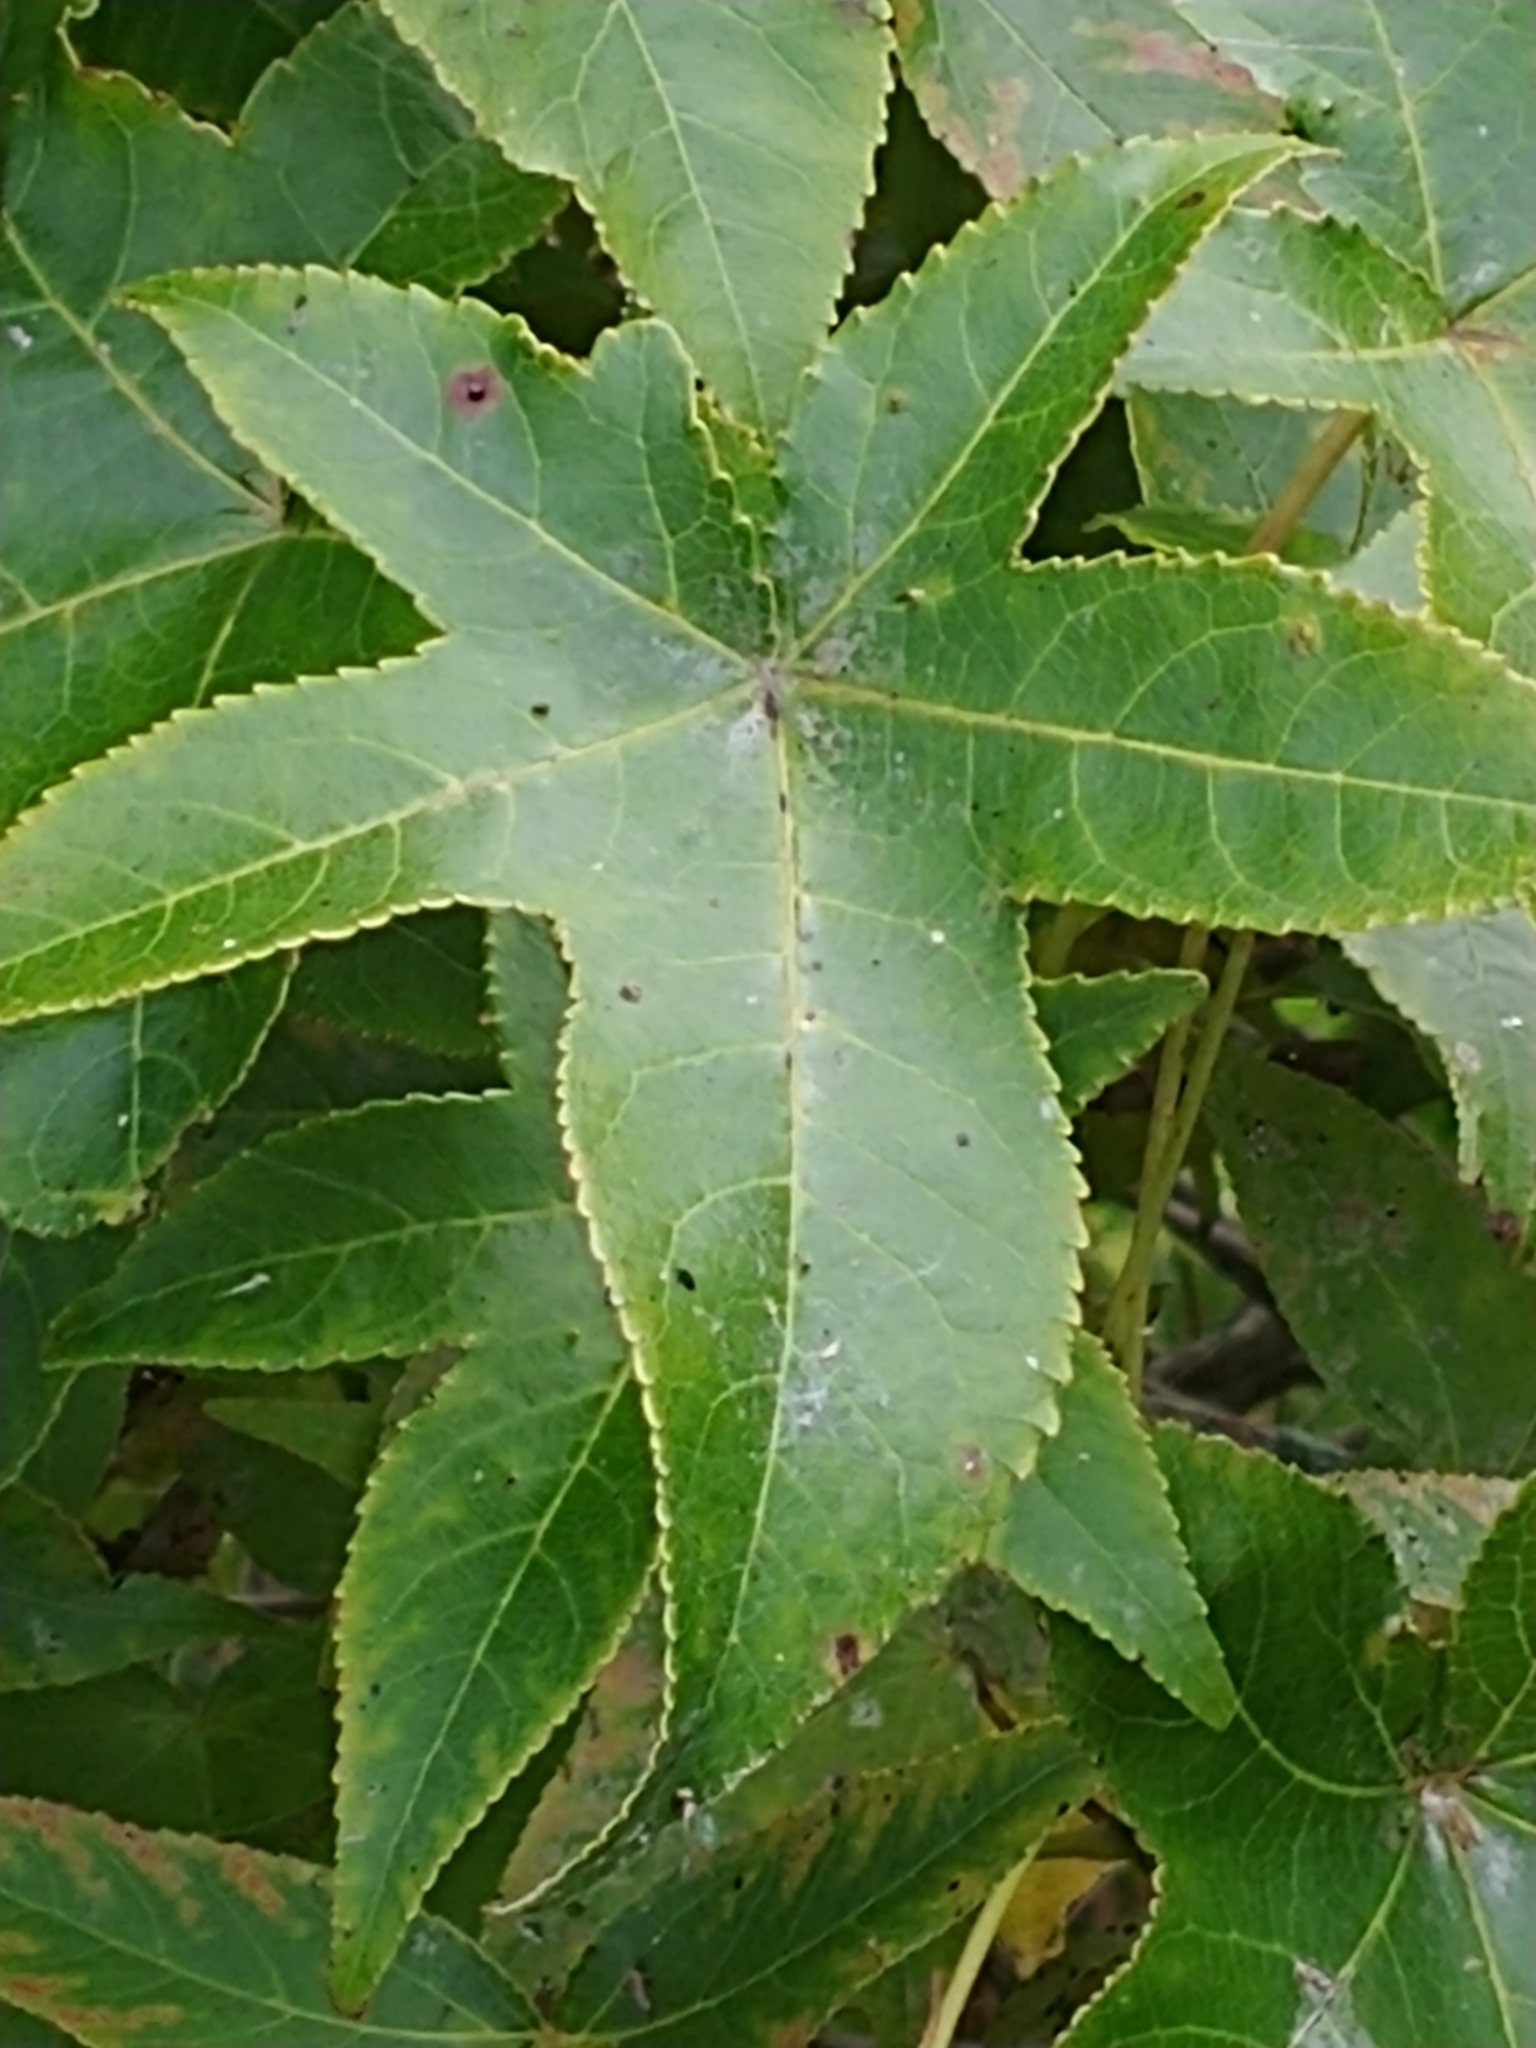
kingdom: Plantae
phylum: Tracheophyta
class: Magnoliopsida
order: Saxifragales
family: Altingiaceae
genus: Liquidambar
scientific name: Liquidambar styraciflua
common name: Sweet gum
